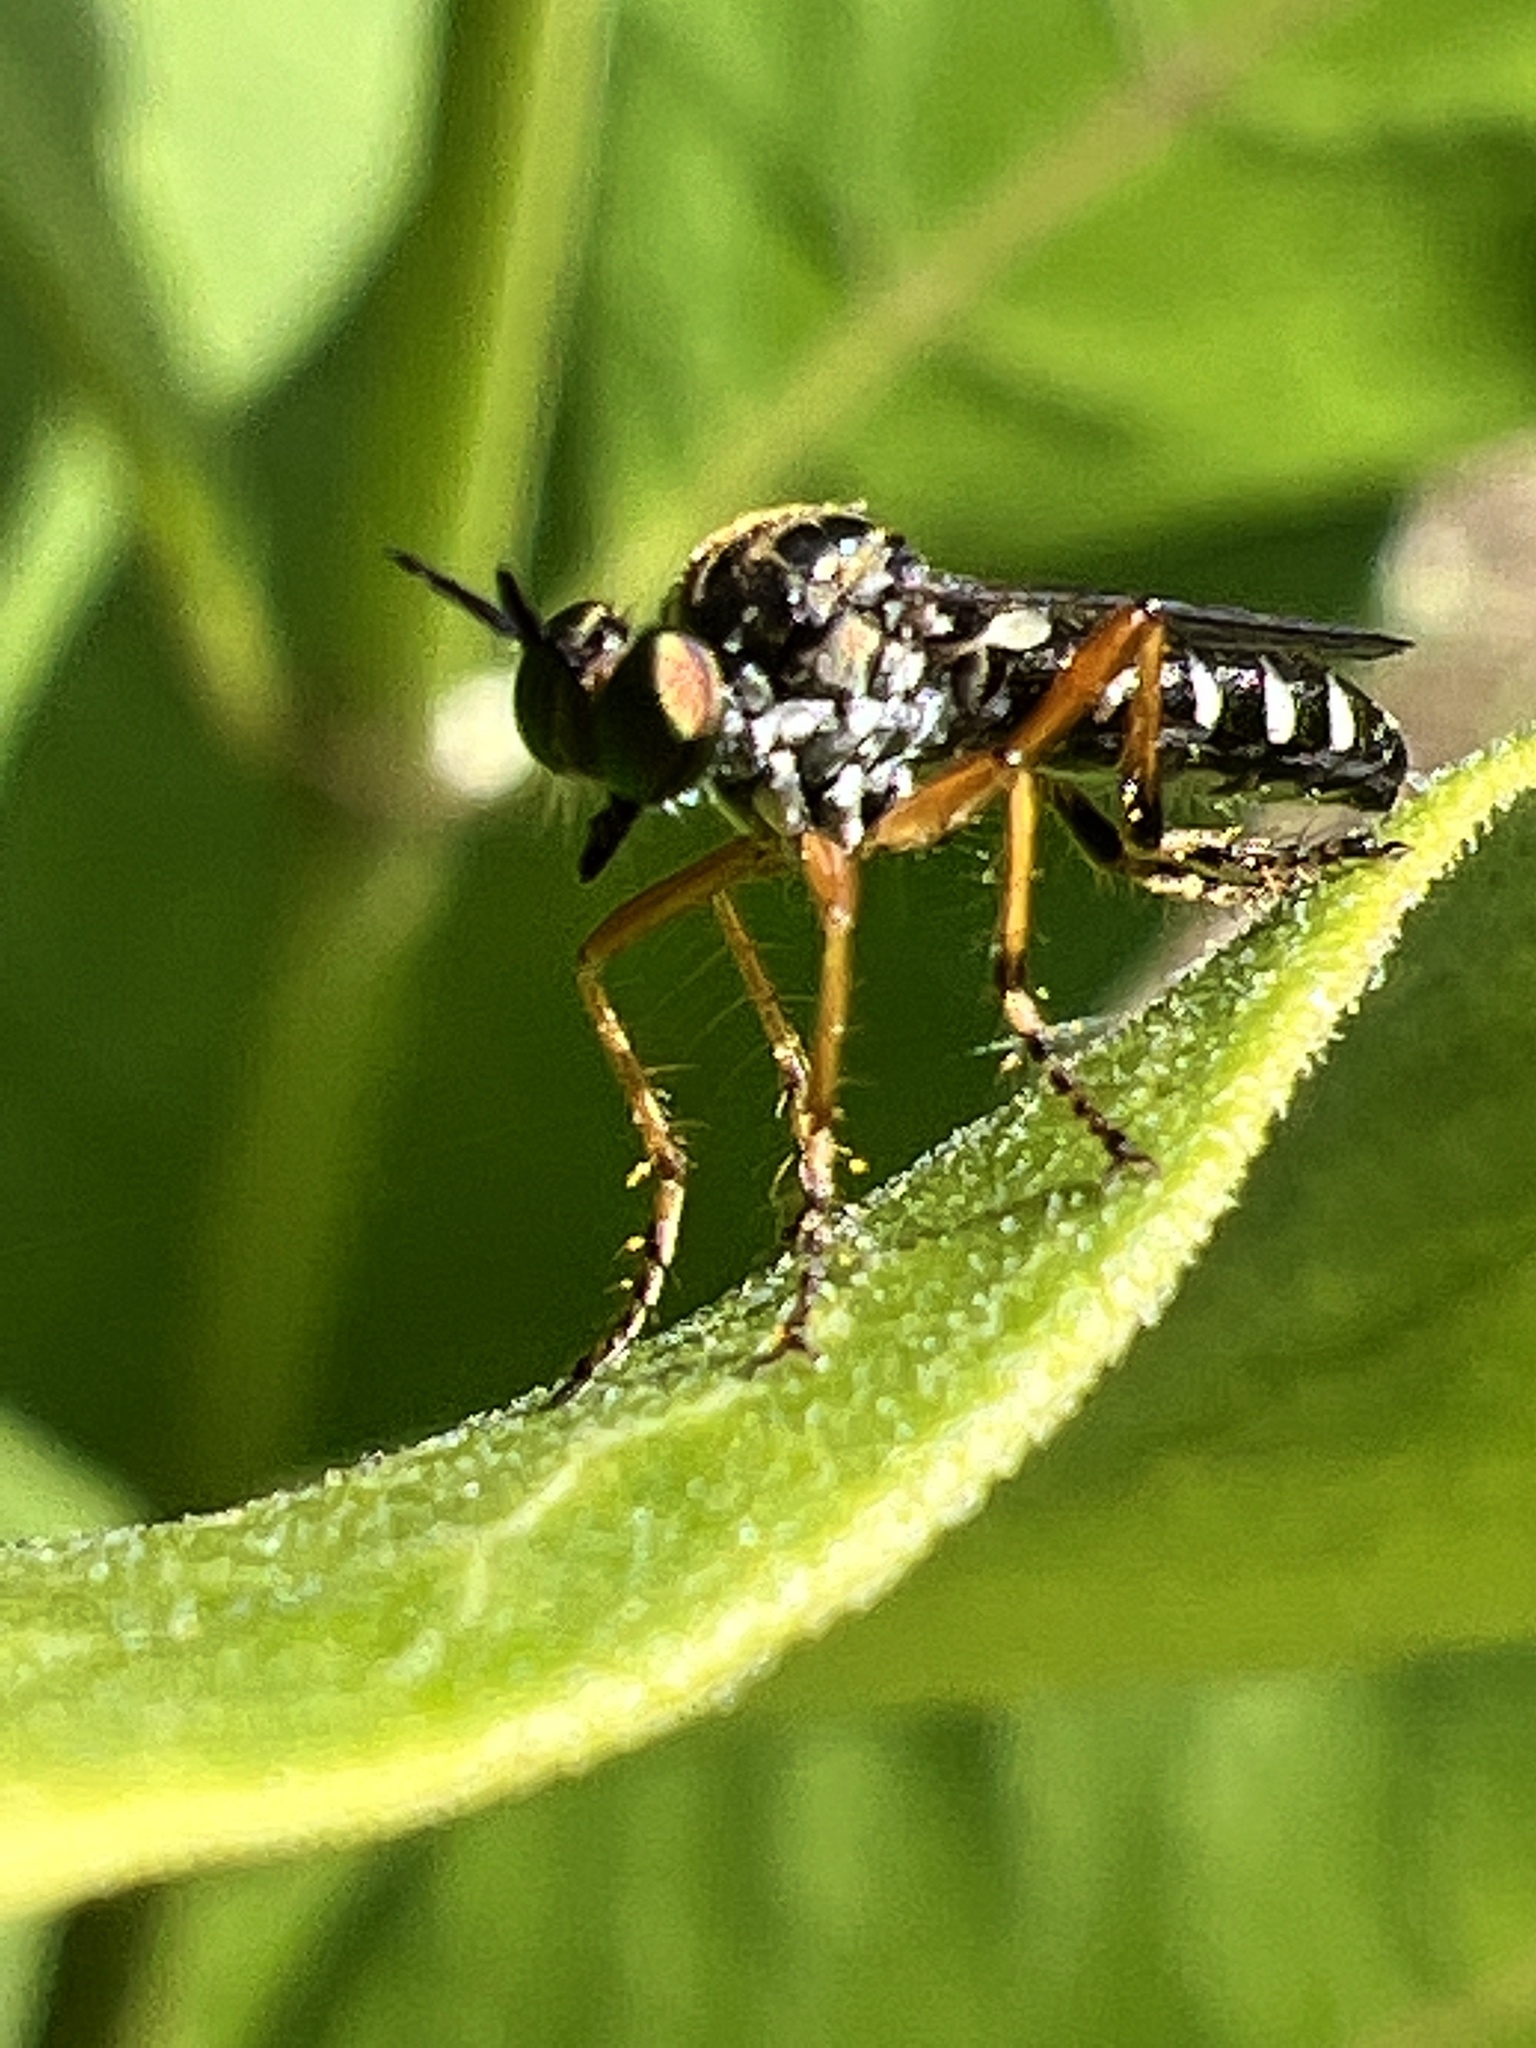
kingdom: Animalia
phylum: Arthropoda
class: Insecta
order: Diptera
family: Asilidae
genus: Taracticus
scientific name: Taracticus octopunctatus
